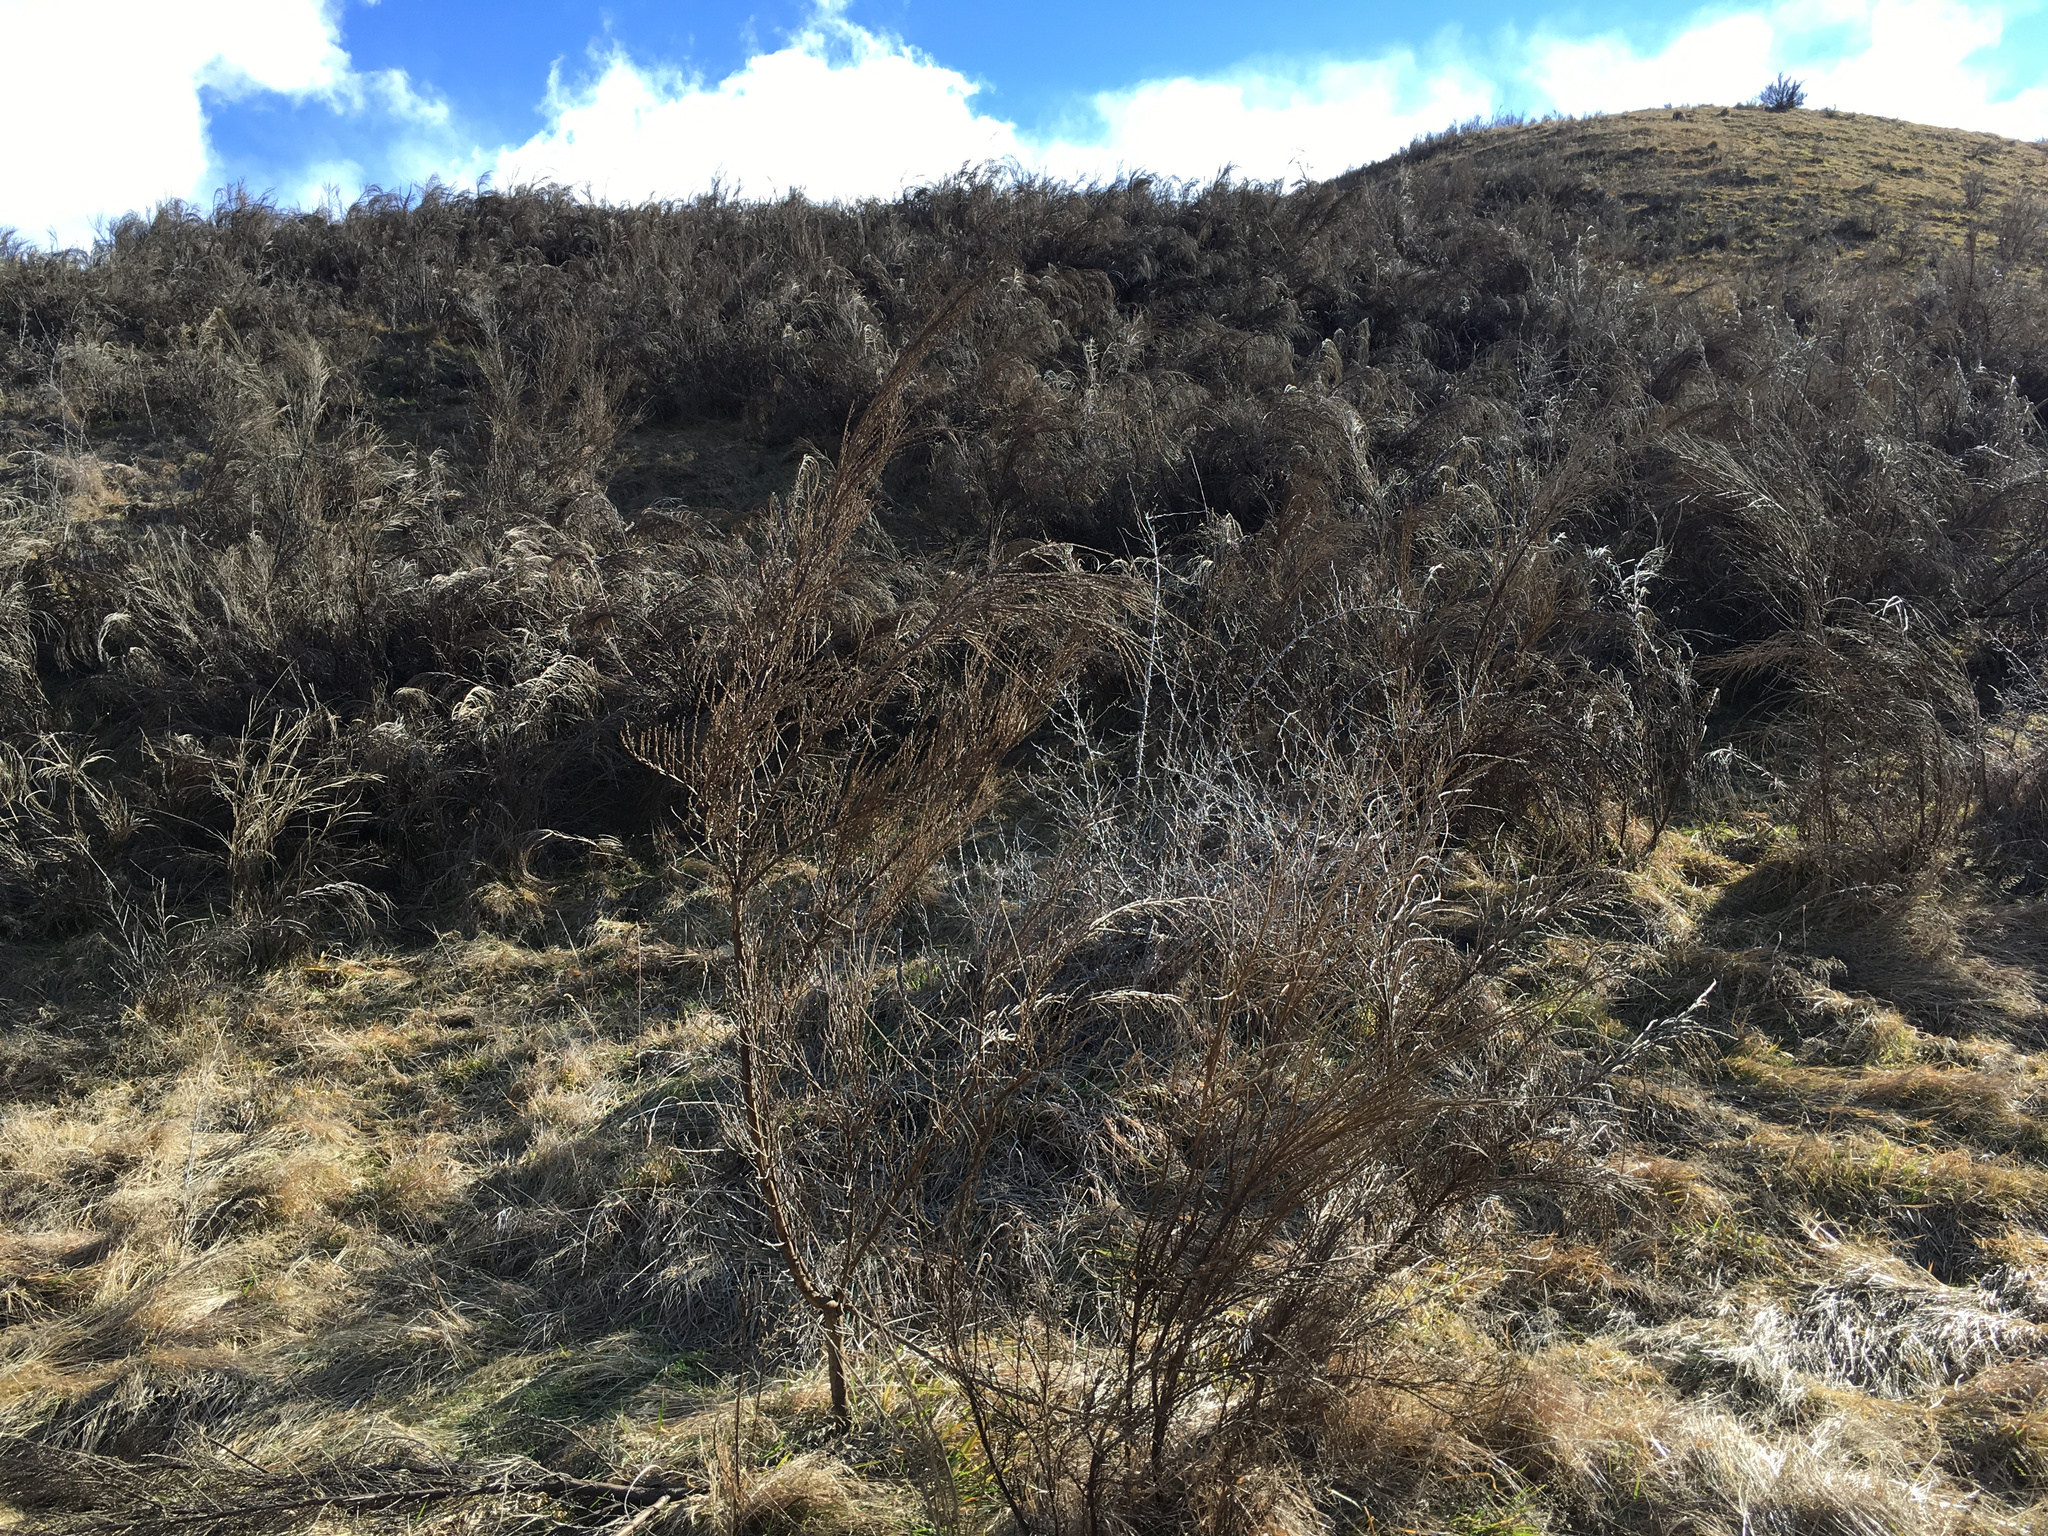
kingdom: Plantae
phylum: Tracheophyta
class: Magnoliopsida
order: Fabales
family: Fabaceae
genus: Cytisus
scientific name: Cytisus scoparius
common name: Scotch broom
